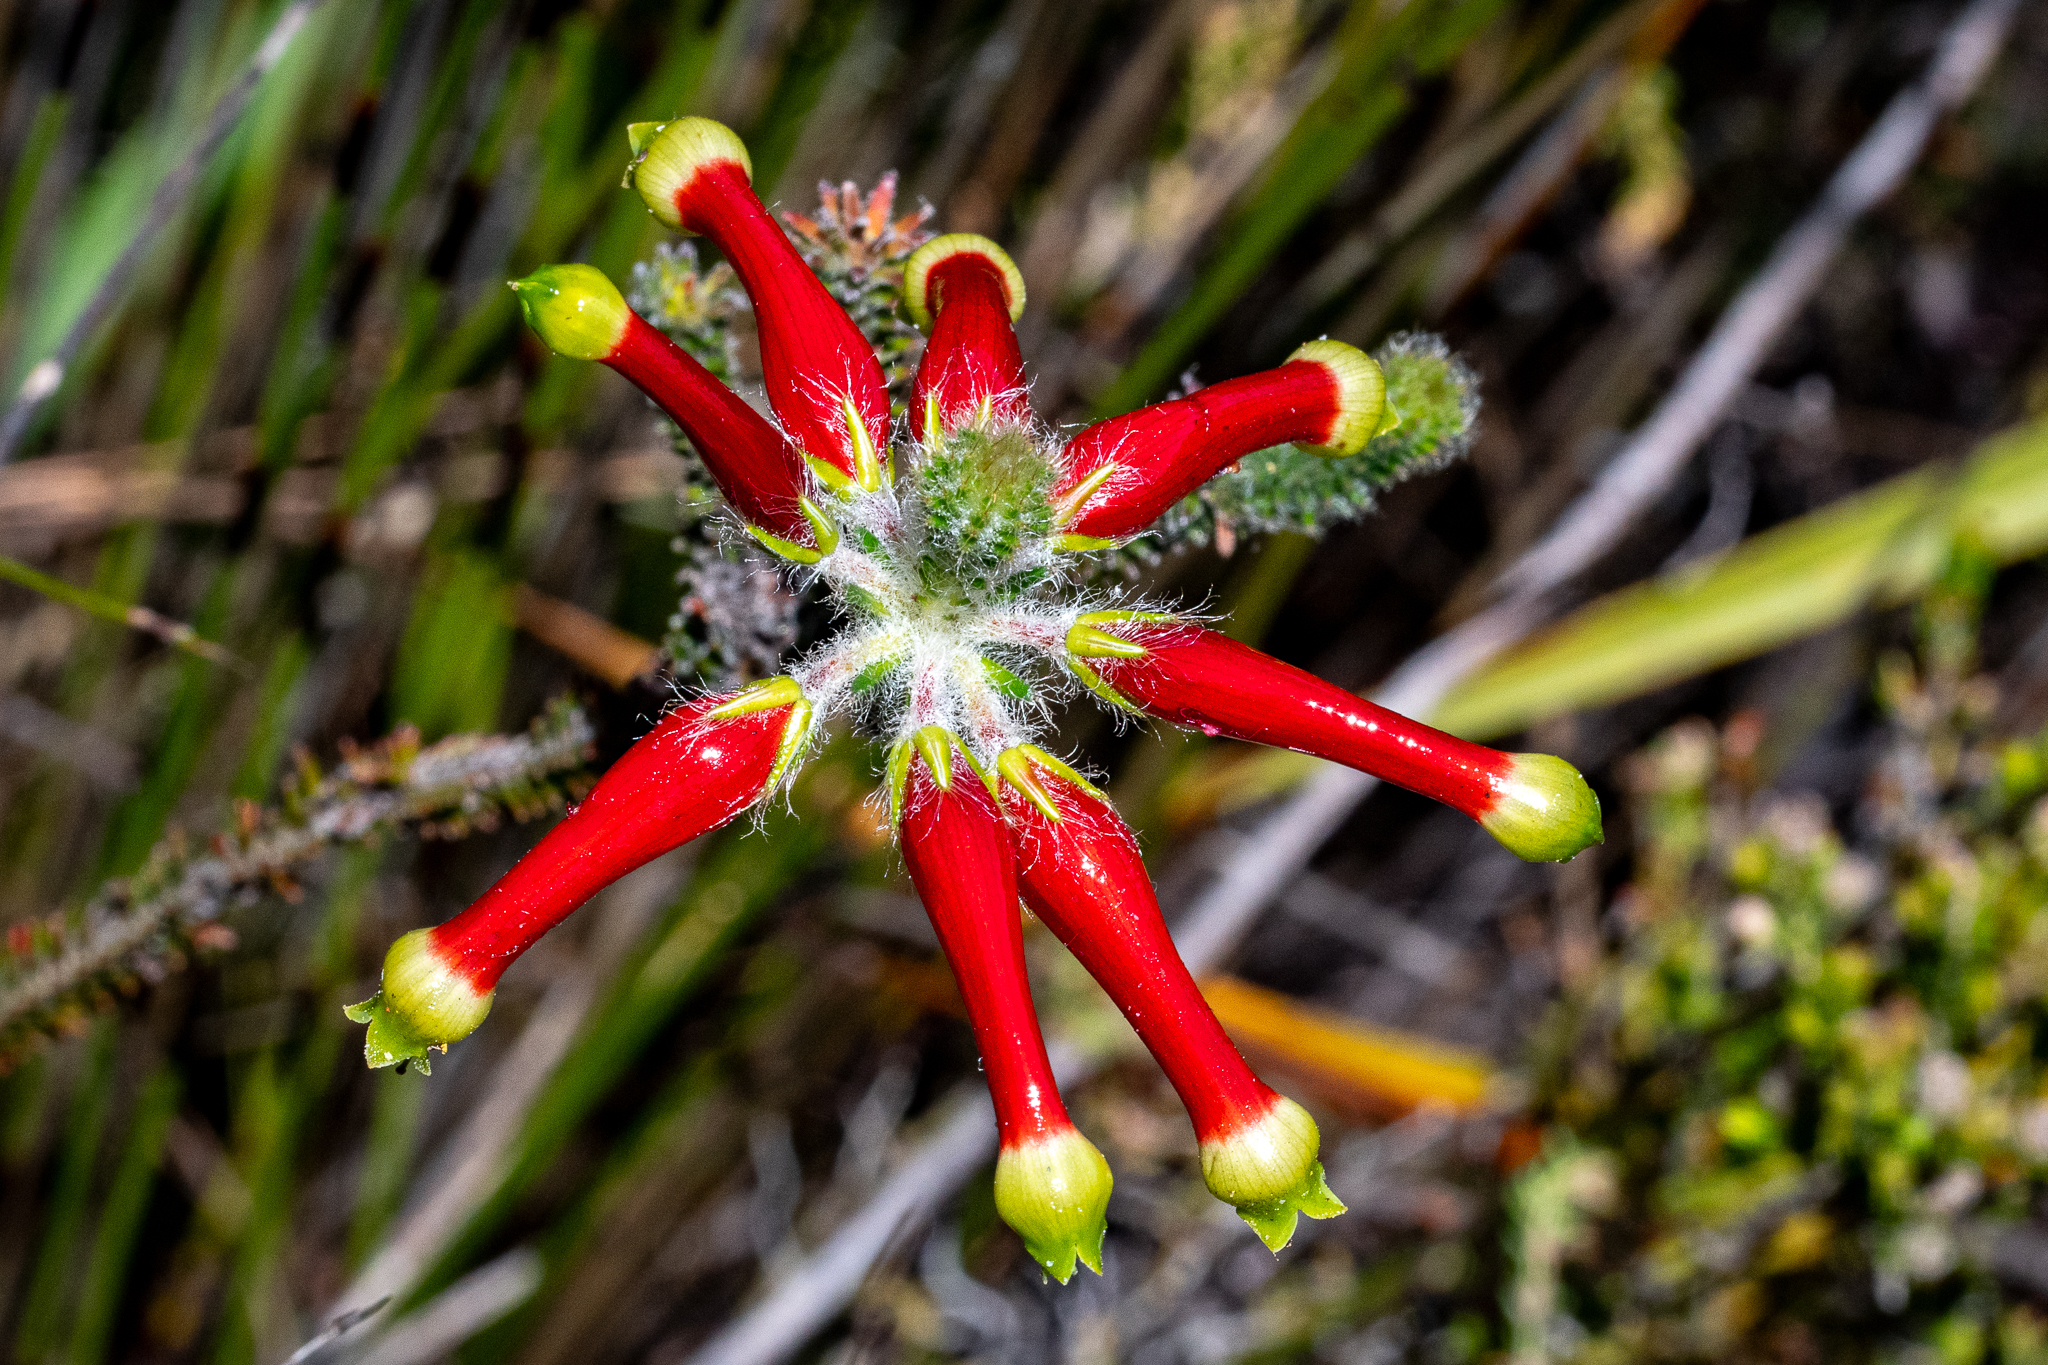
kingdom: Plantae
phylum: Tracheophyta
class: Magnoliopsida
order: Ericales
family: Ericaceae
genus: Erica
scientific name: Erica massonii
